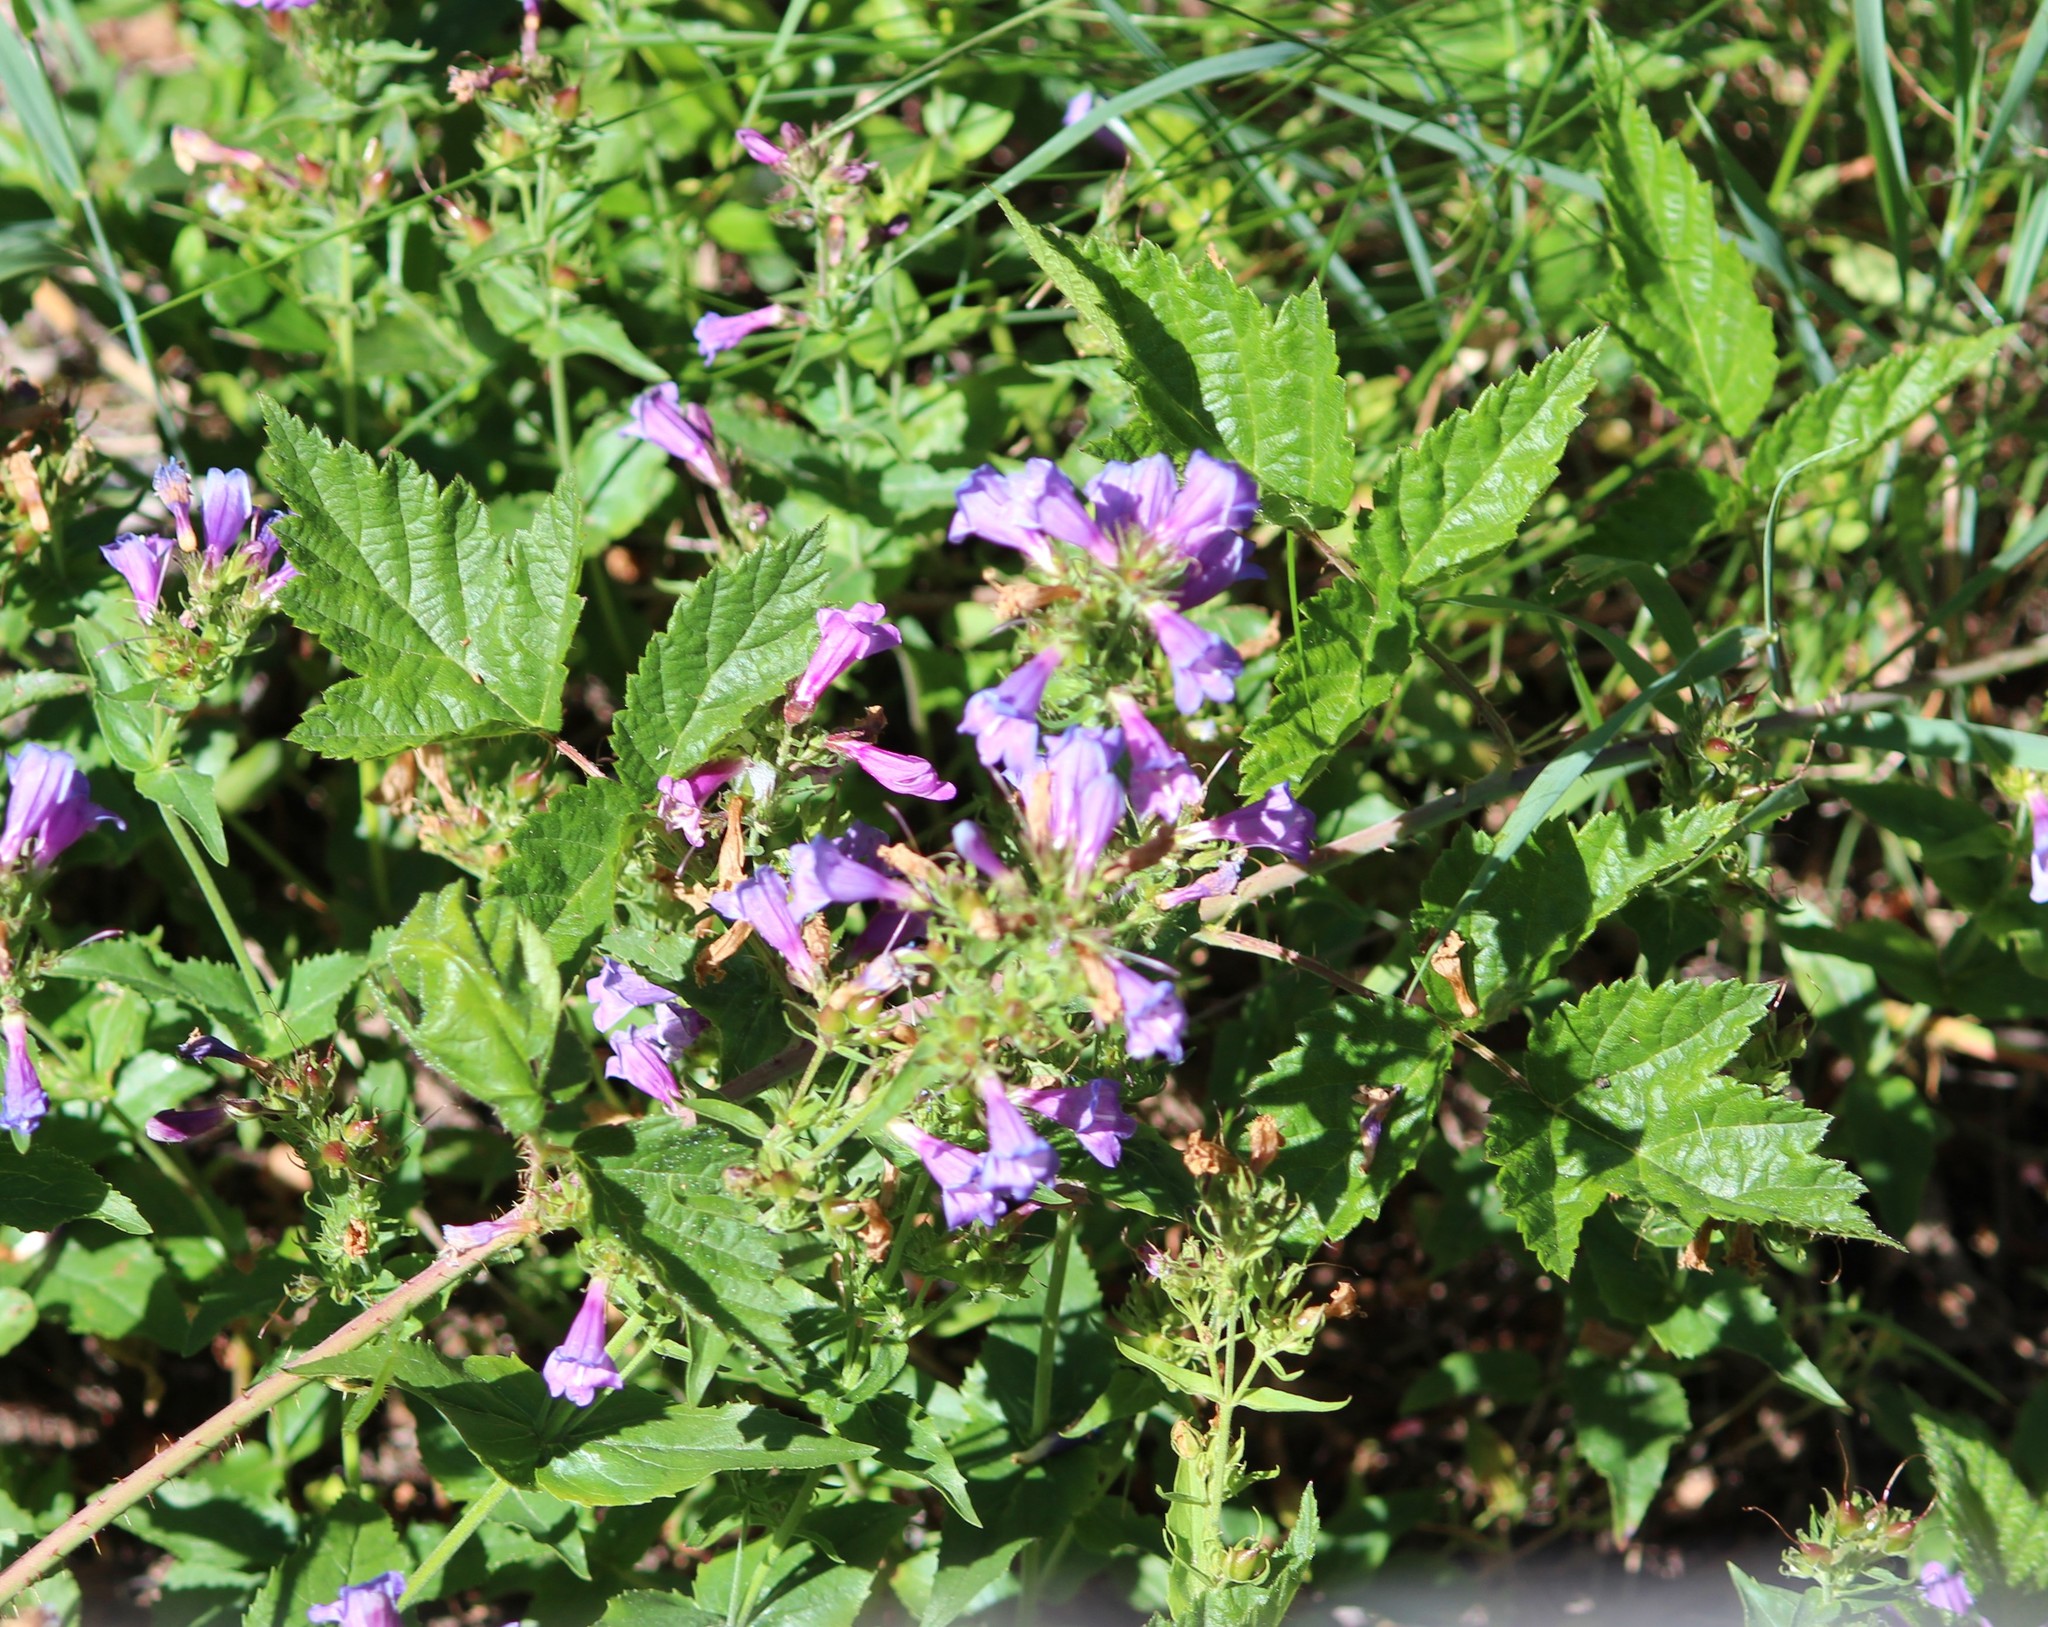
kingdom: Plantae
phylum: Tracheophyta
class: Magnoliopsida
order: Lamiales
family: Plantaginaceae
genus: Penstemon
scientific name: Penstemon serrulatus
